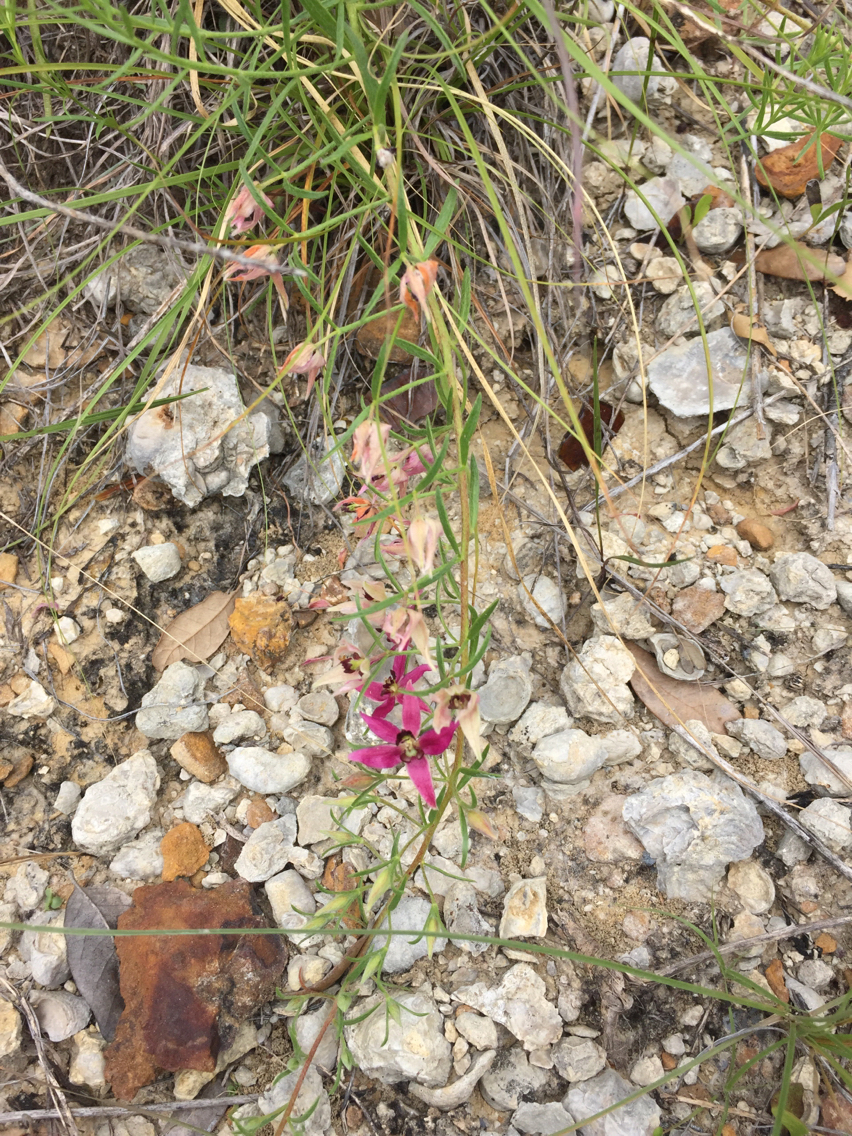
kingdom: Plantae
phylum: Tracheophyta
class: Magnoliopsida
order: Zygophyllales
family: Krameriaceae
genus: Krameria
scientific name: Krameria lanceolata
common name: Ratany
